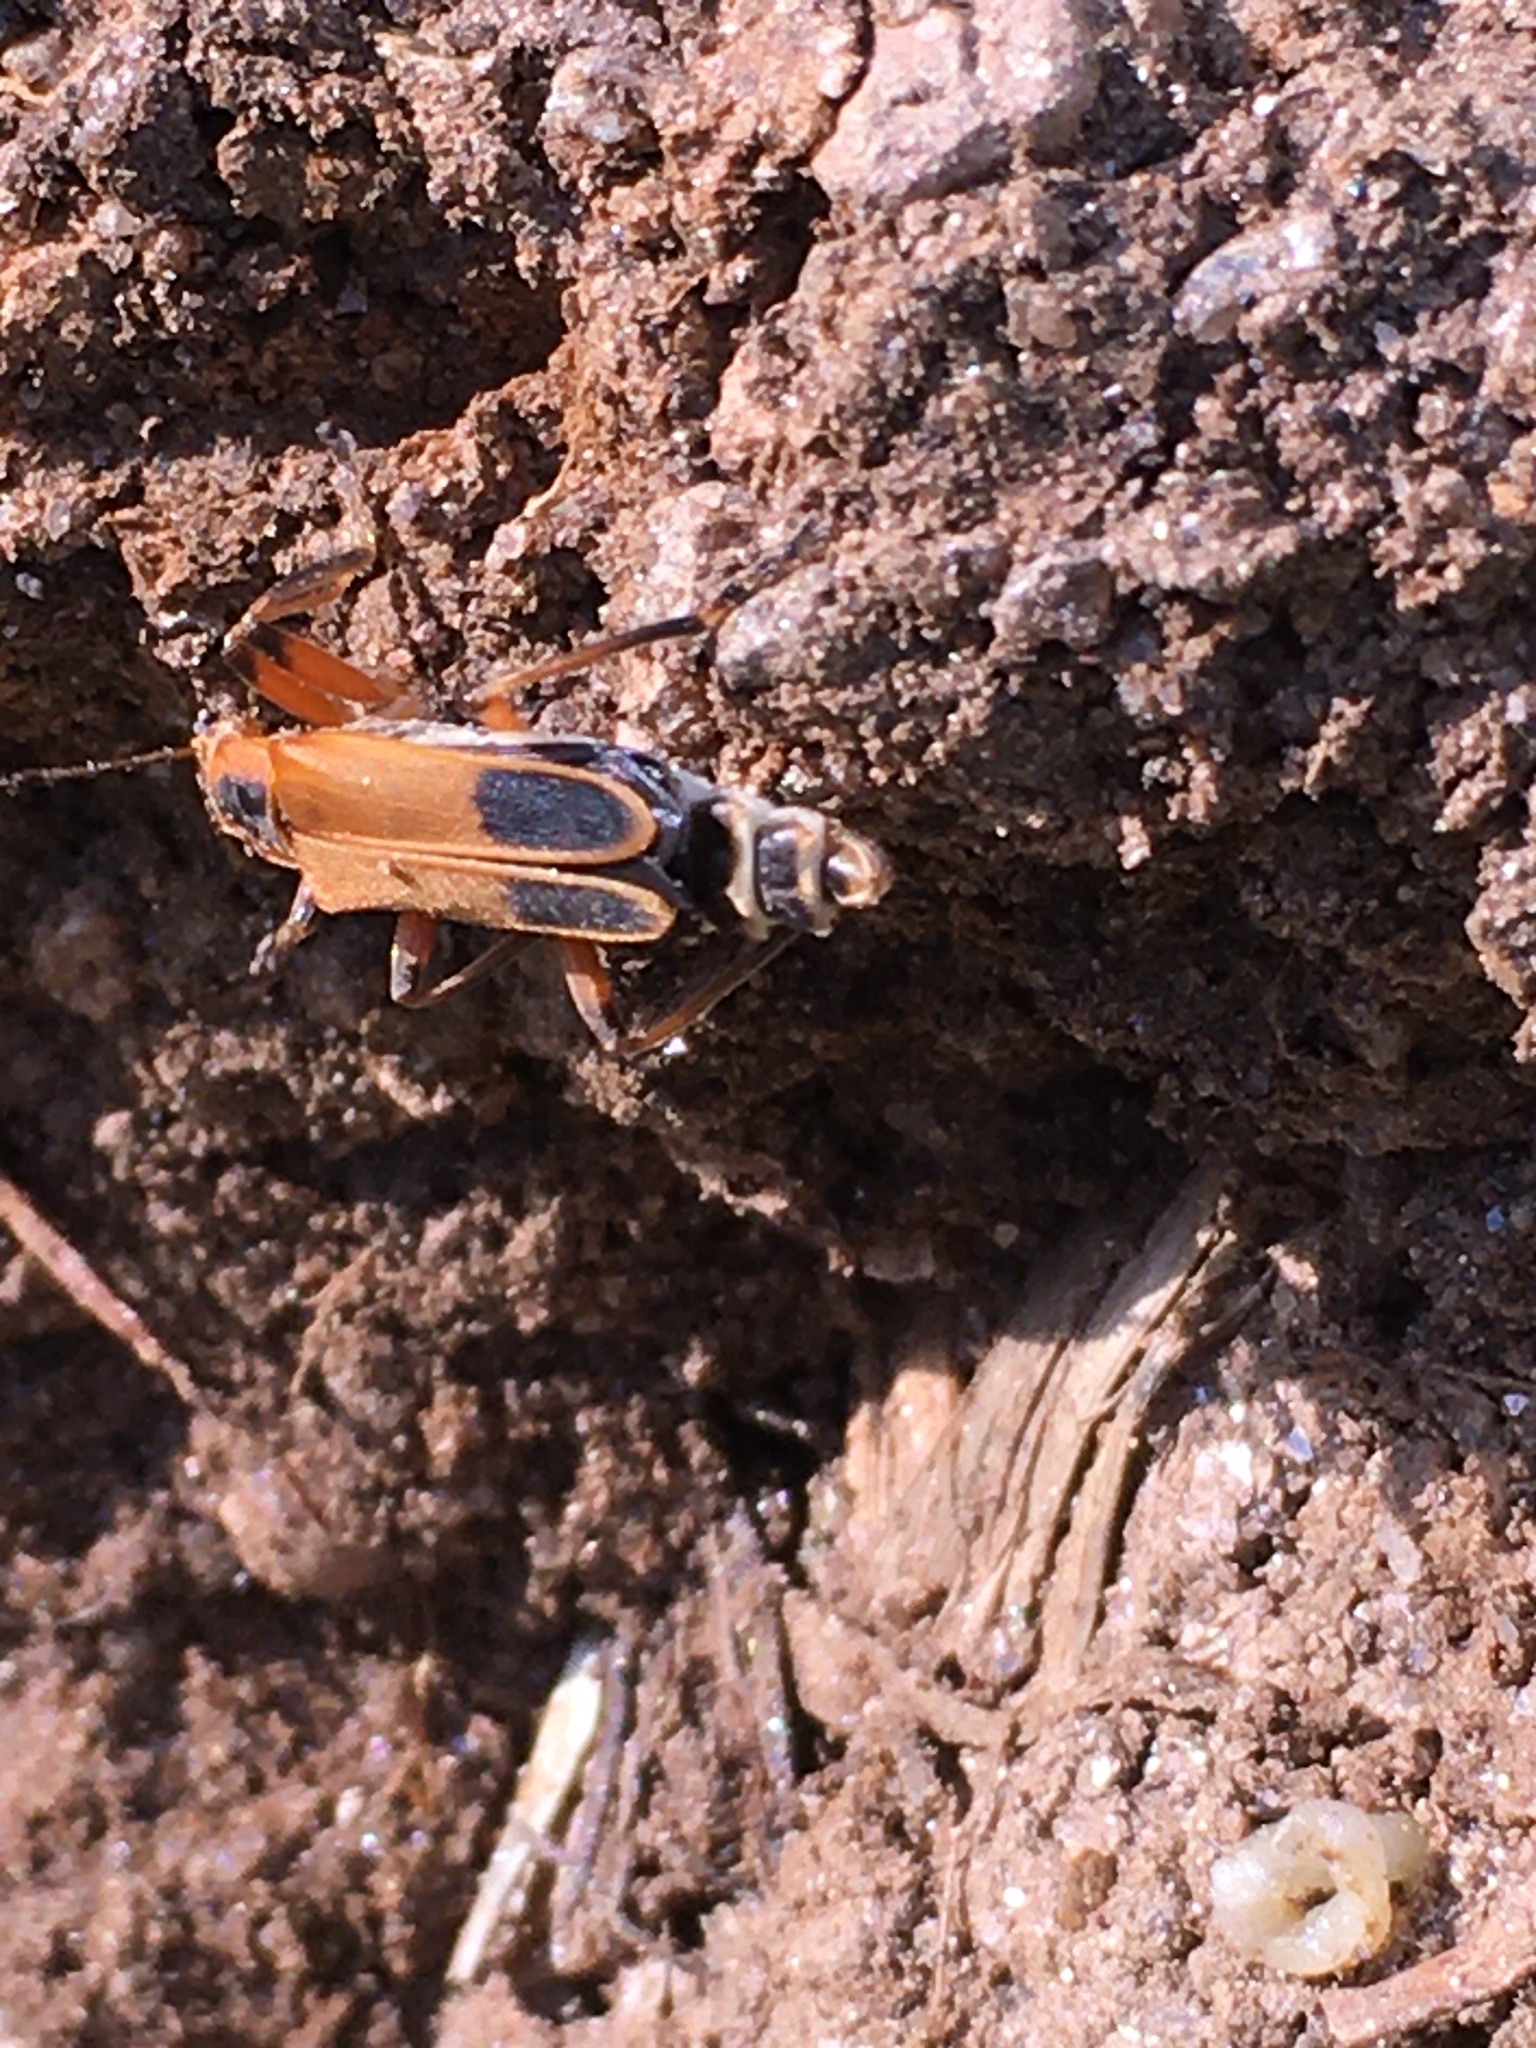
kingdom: Animalia
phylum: Arthropoda
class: Insecta
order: Coleoptera
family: Cantharidae
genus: Chauliognathus
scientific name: Chauliognathus marginatus
